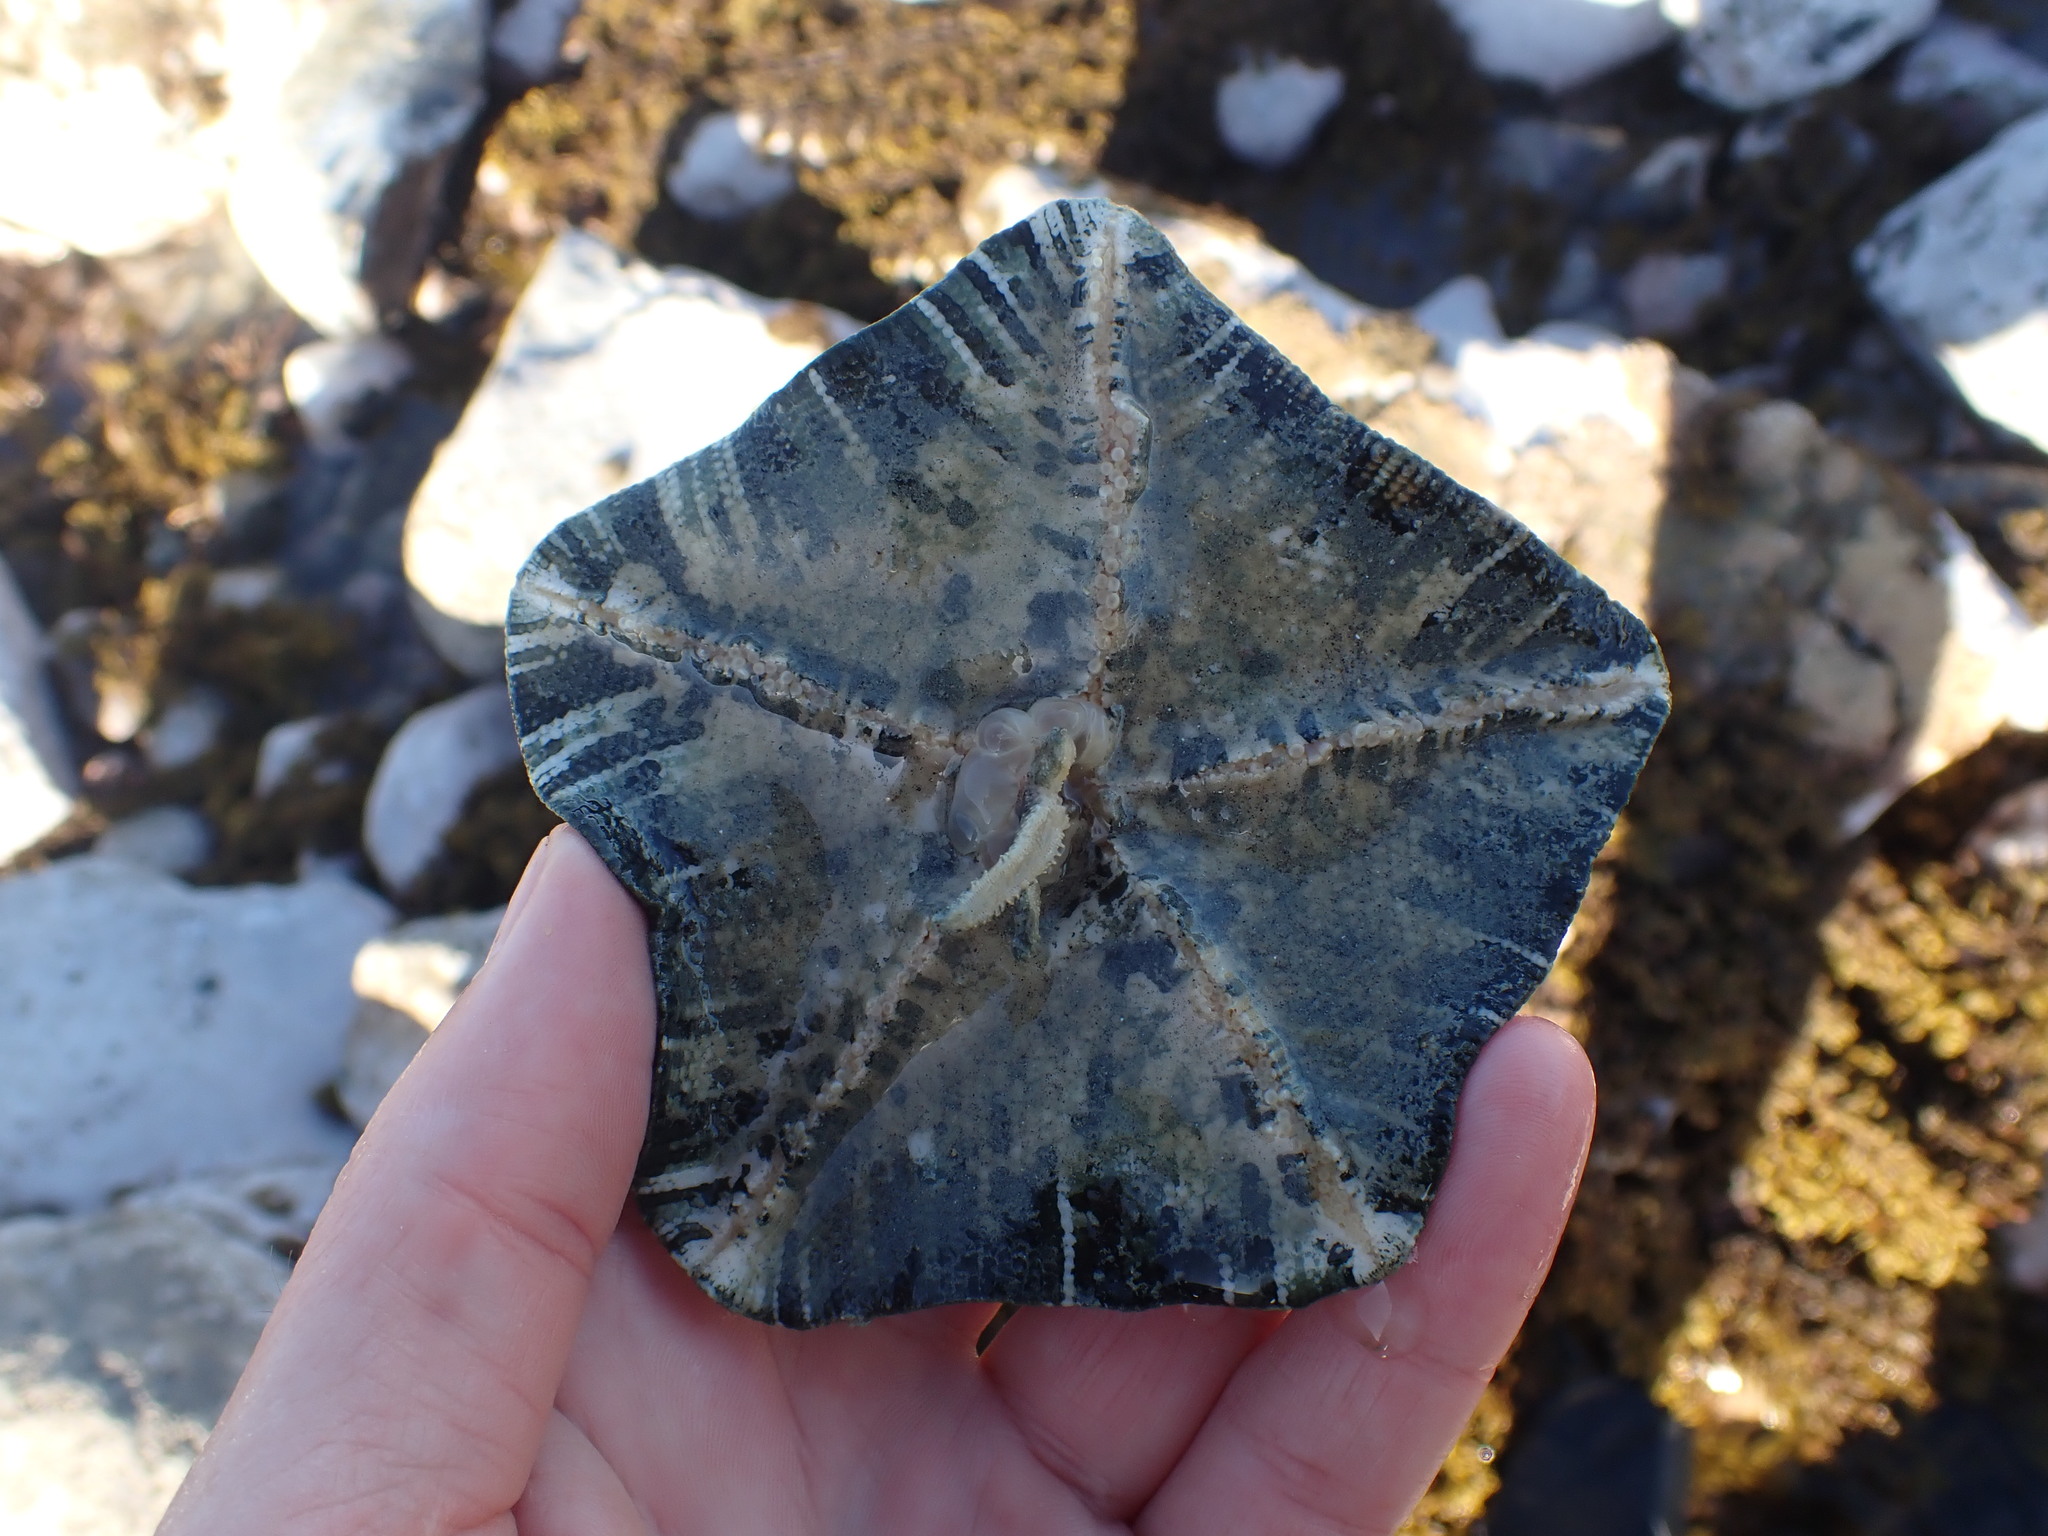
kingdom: Animalia
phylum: Echinodermata
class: Asteroidea
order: Valvatida
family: Asterinidae
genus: Stegnaster
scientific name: Stegnaster inflatus
